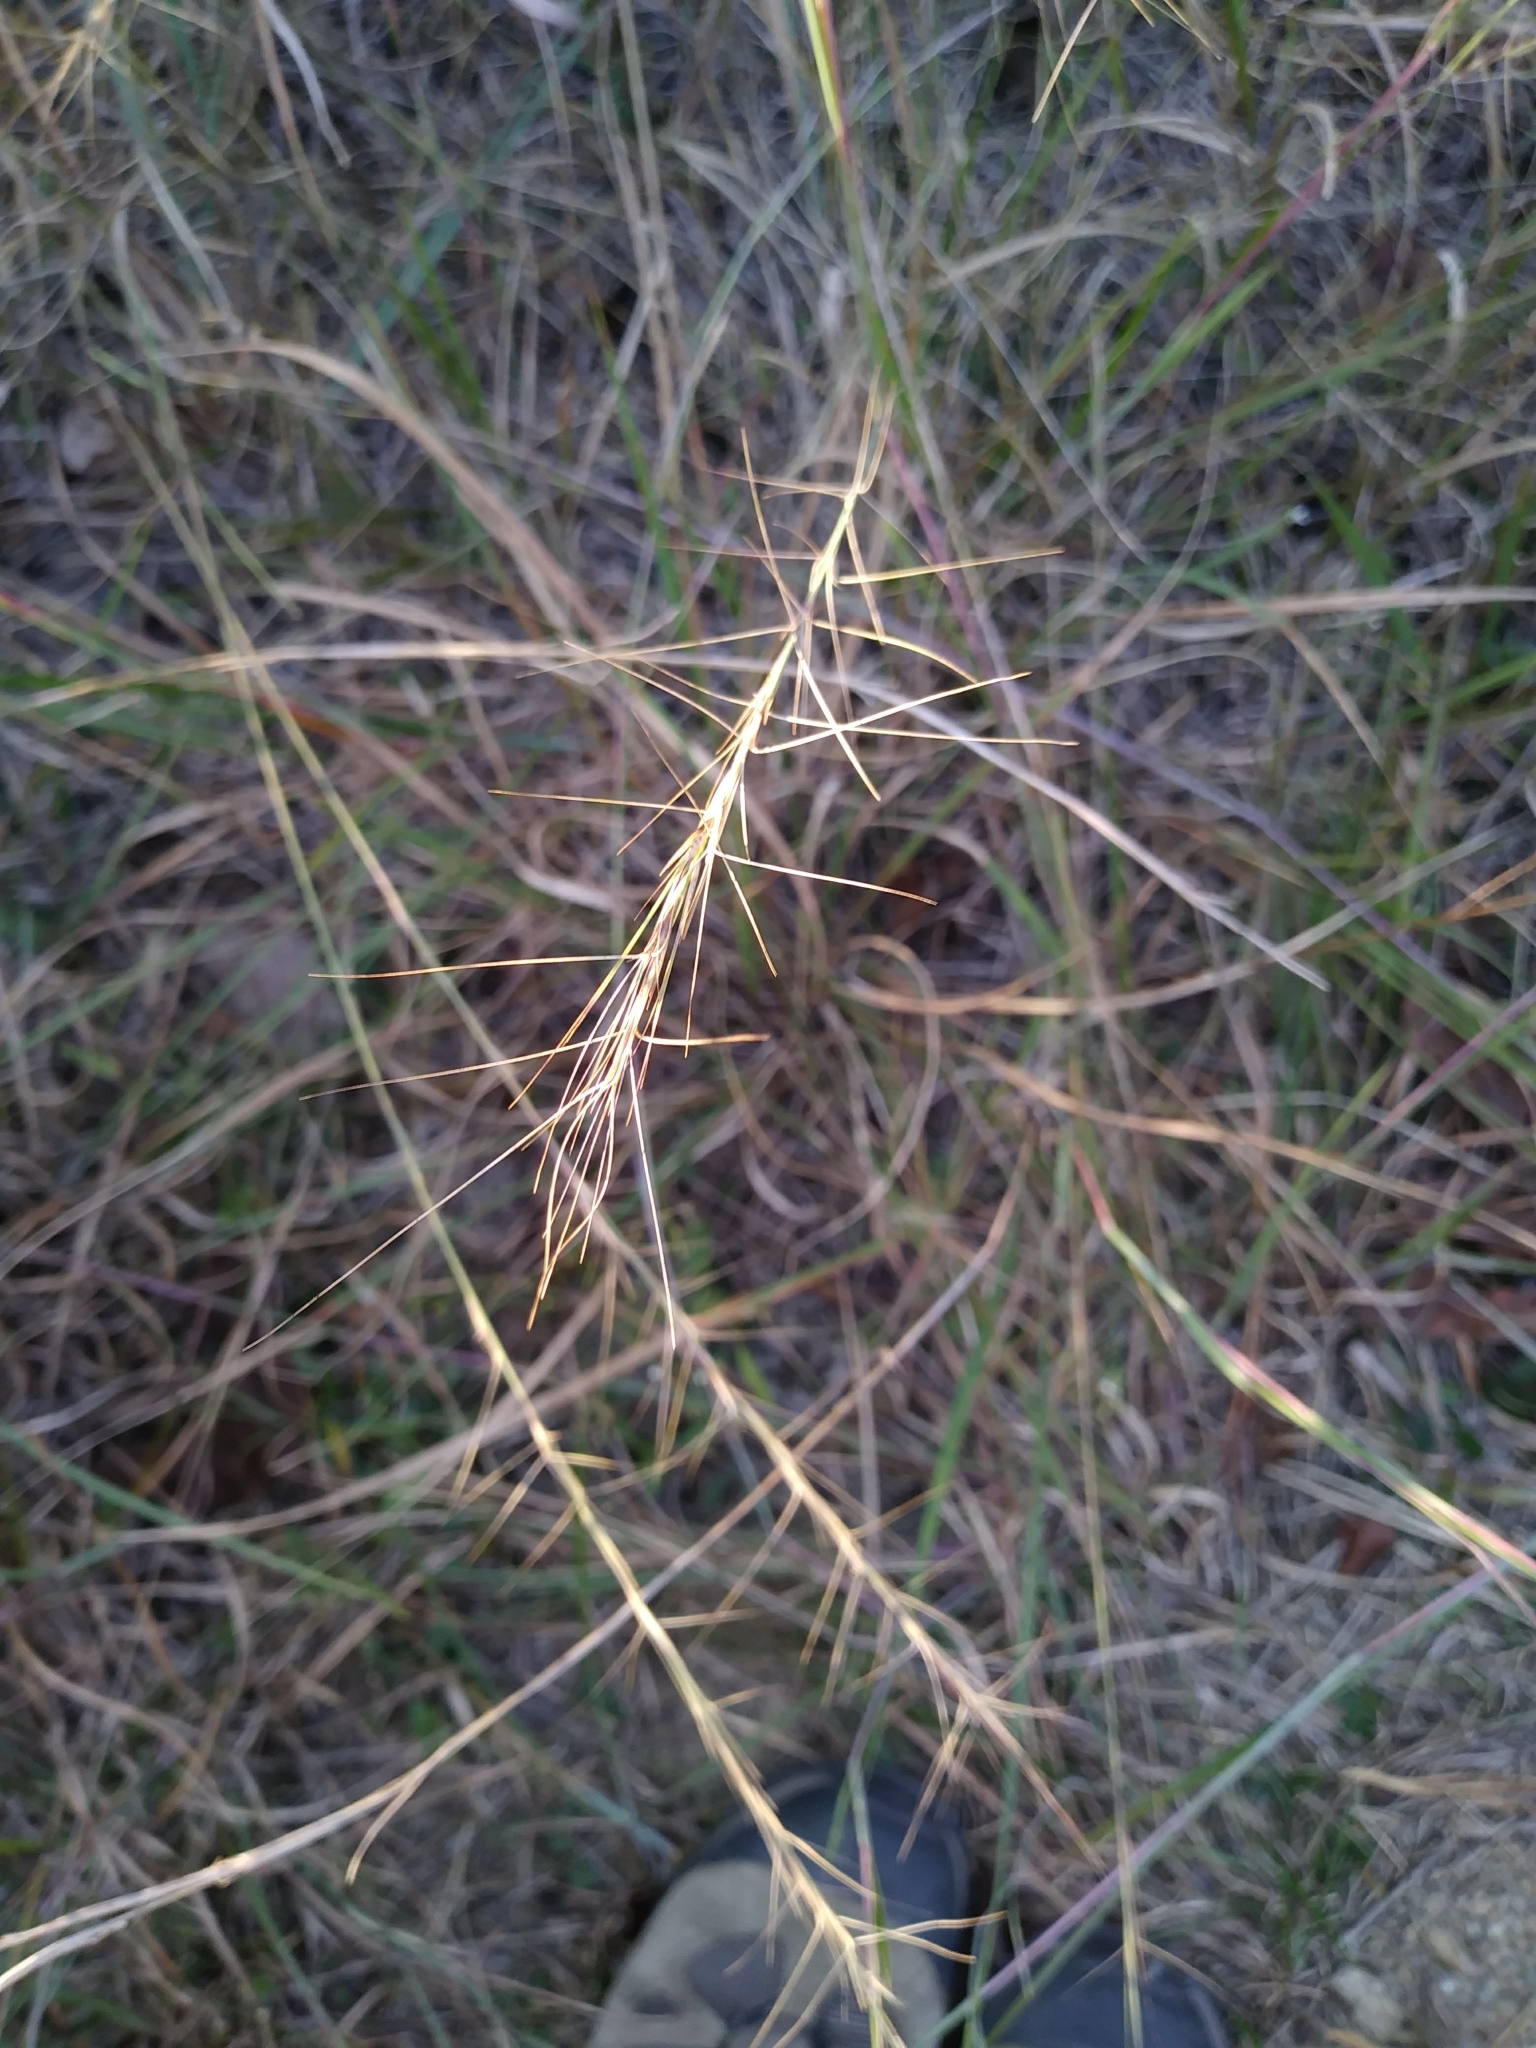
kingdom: Plantae
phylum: Tracheophyta
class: Liliopsida
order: Poales
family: Poaceae
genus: Aristida
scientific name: Aristida purpurascens
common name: Arrow-feather
